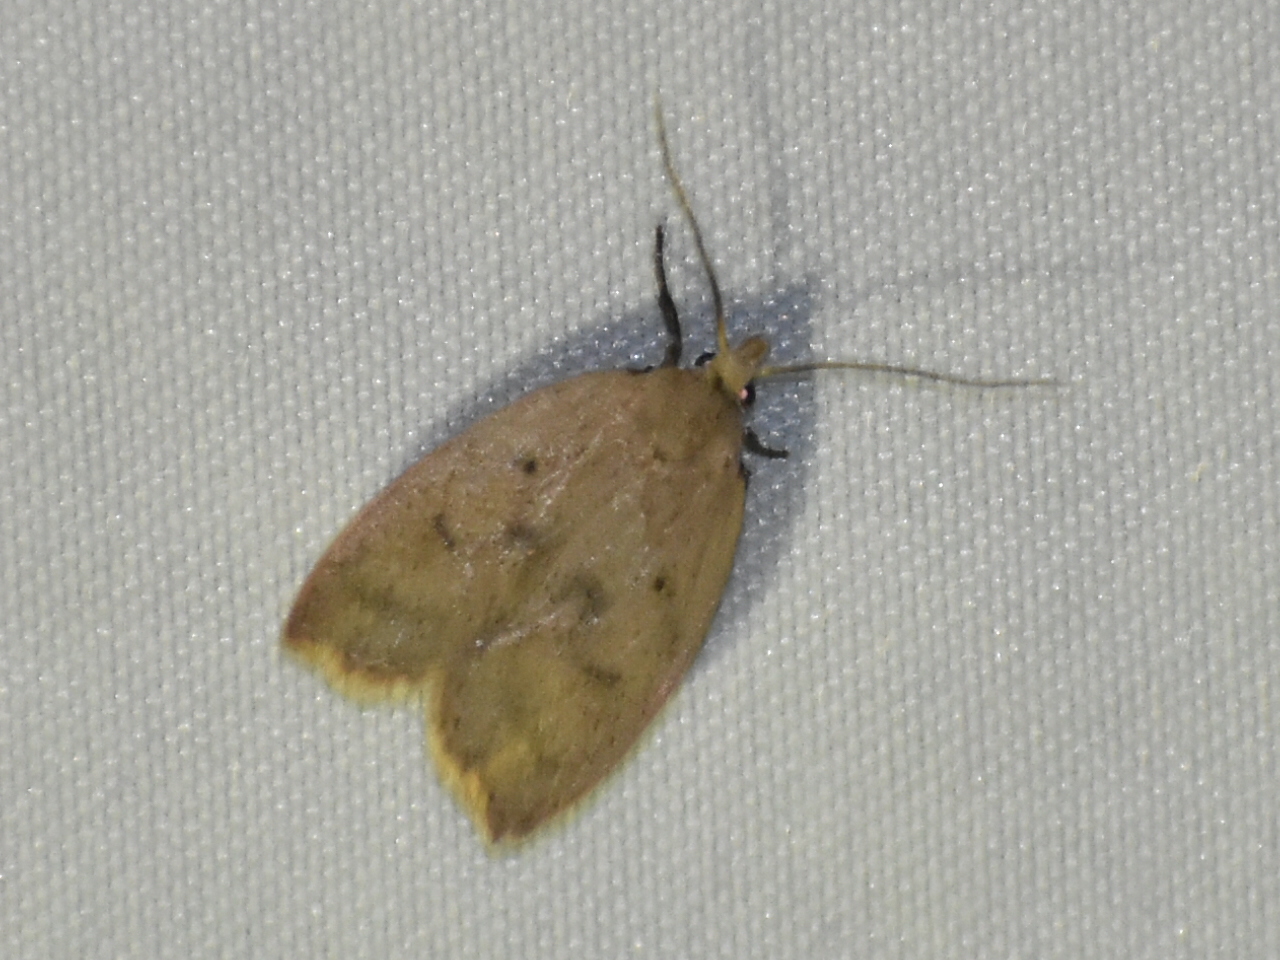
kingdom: Animalia
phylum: Arthropoda
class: Insecta
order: Lepidoptera
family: Peleopodidae
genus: Machimia
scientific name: Machimia tentoriferella
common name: Gold-striped leaftier moth
